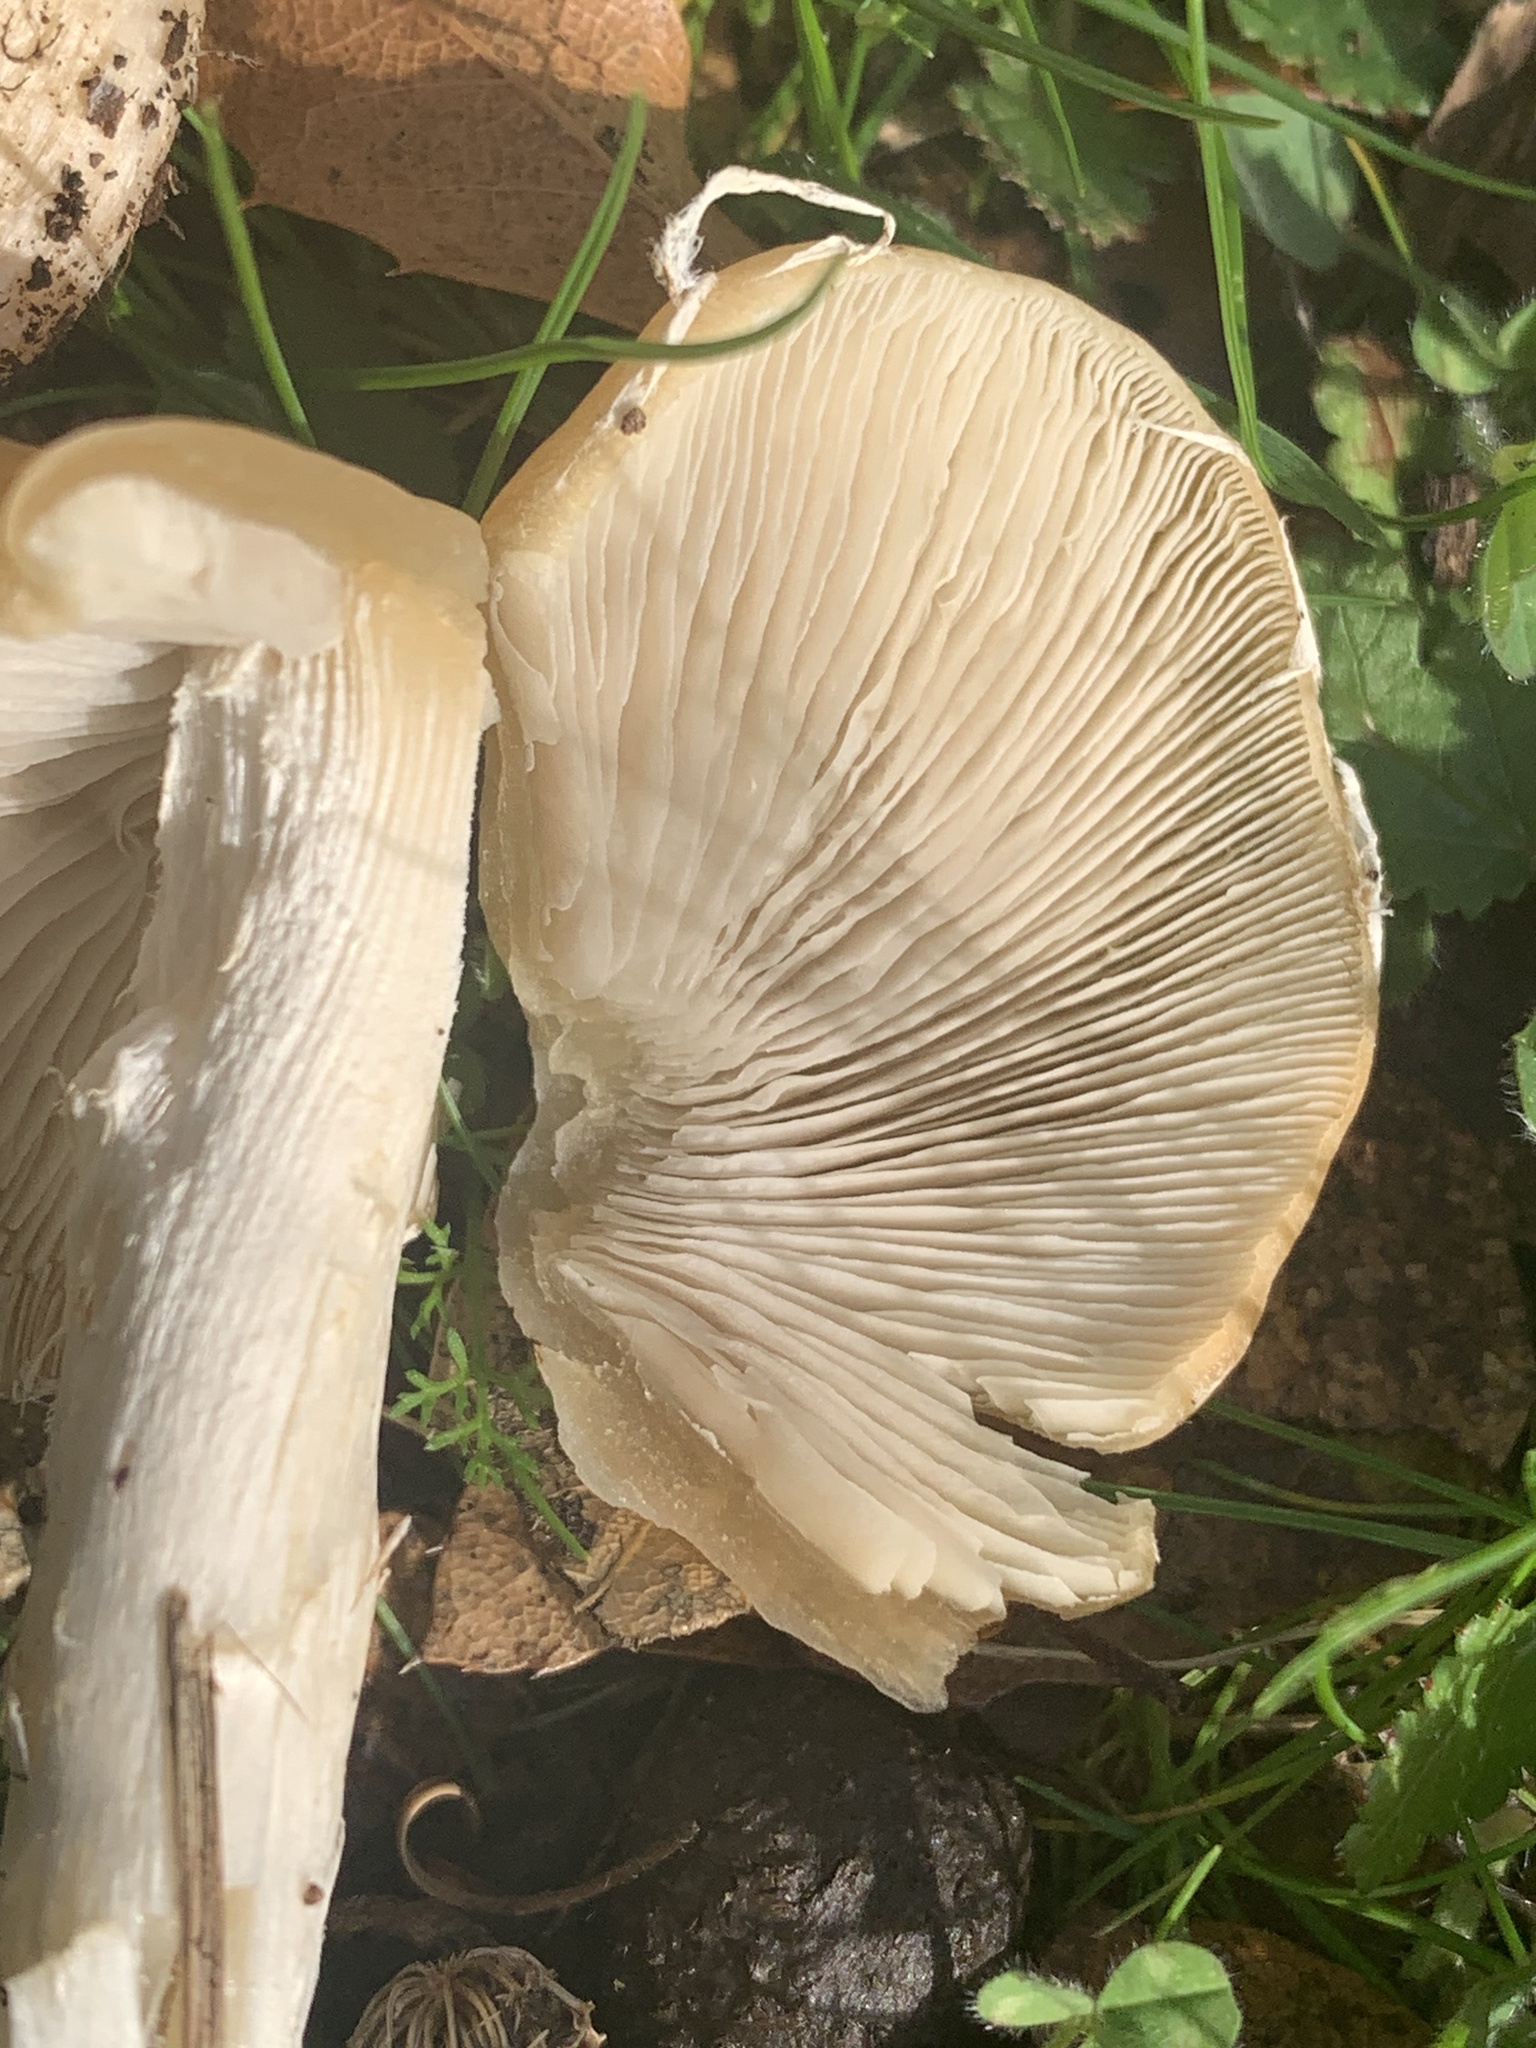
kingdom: Fungi
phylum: Basidiomycota
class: Agaricomycetes
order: Agaricales
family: Psathyrellaceae
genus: Candolleomyces
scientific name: Candolleomyces candolleanus
